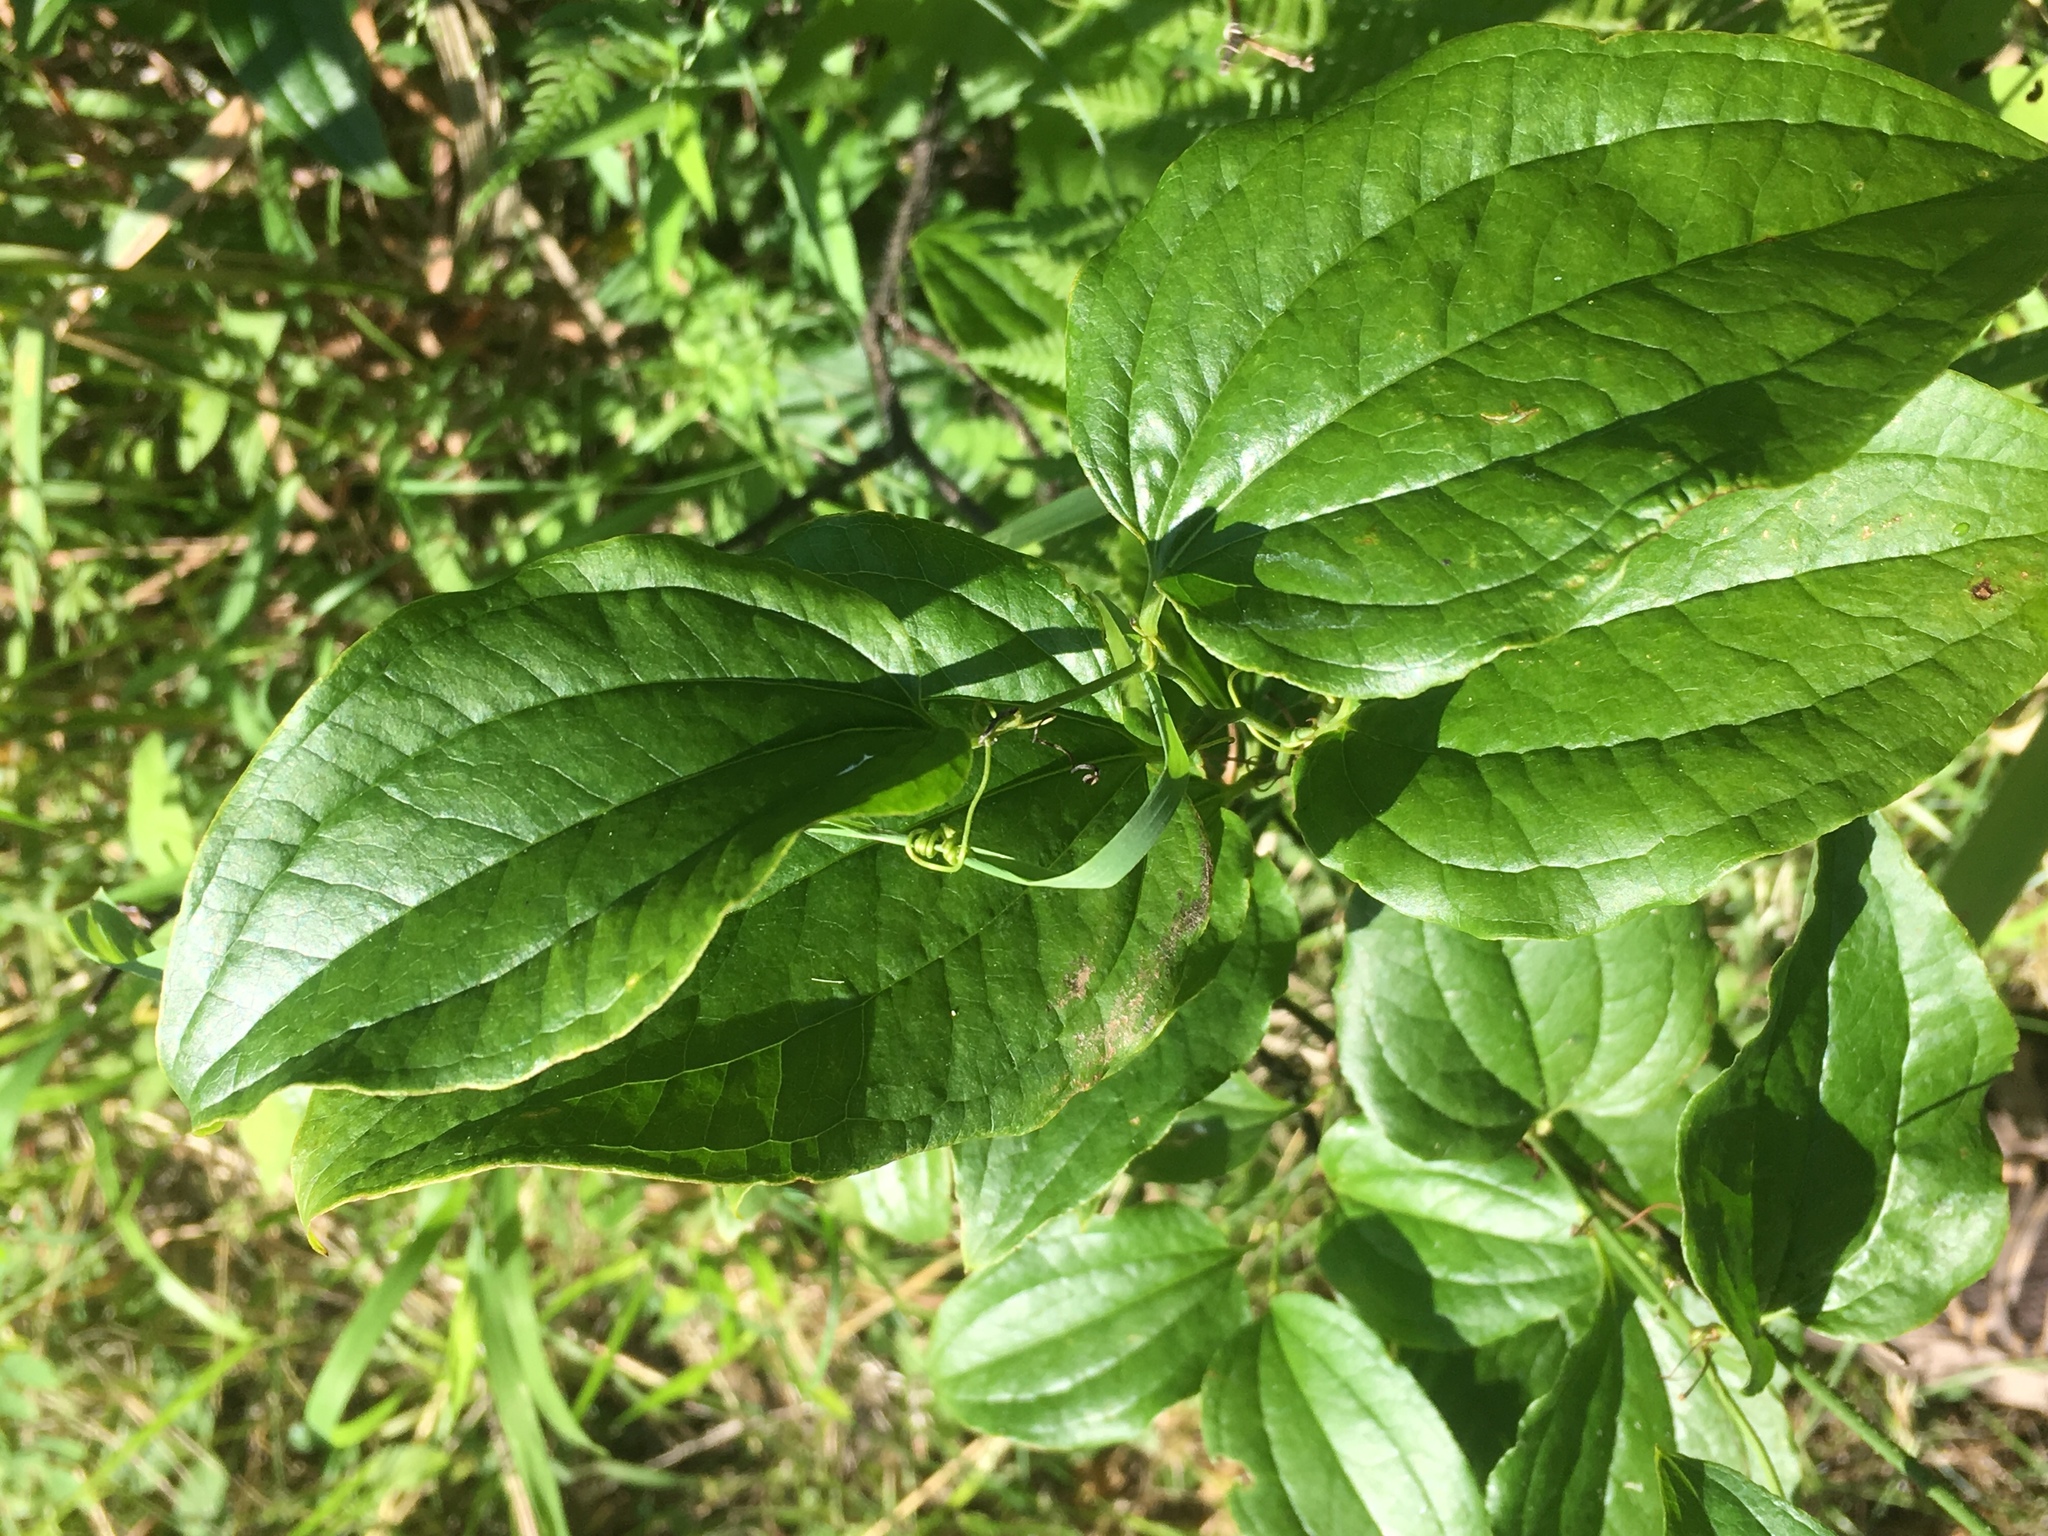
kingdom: Plantae
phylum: Tracheophyta
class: Liliopsida
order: Liliales
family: Smilacaceae
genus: Smilax
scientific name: Smilax tamnoides
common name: Hellfetter
